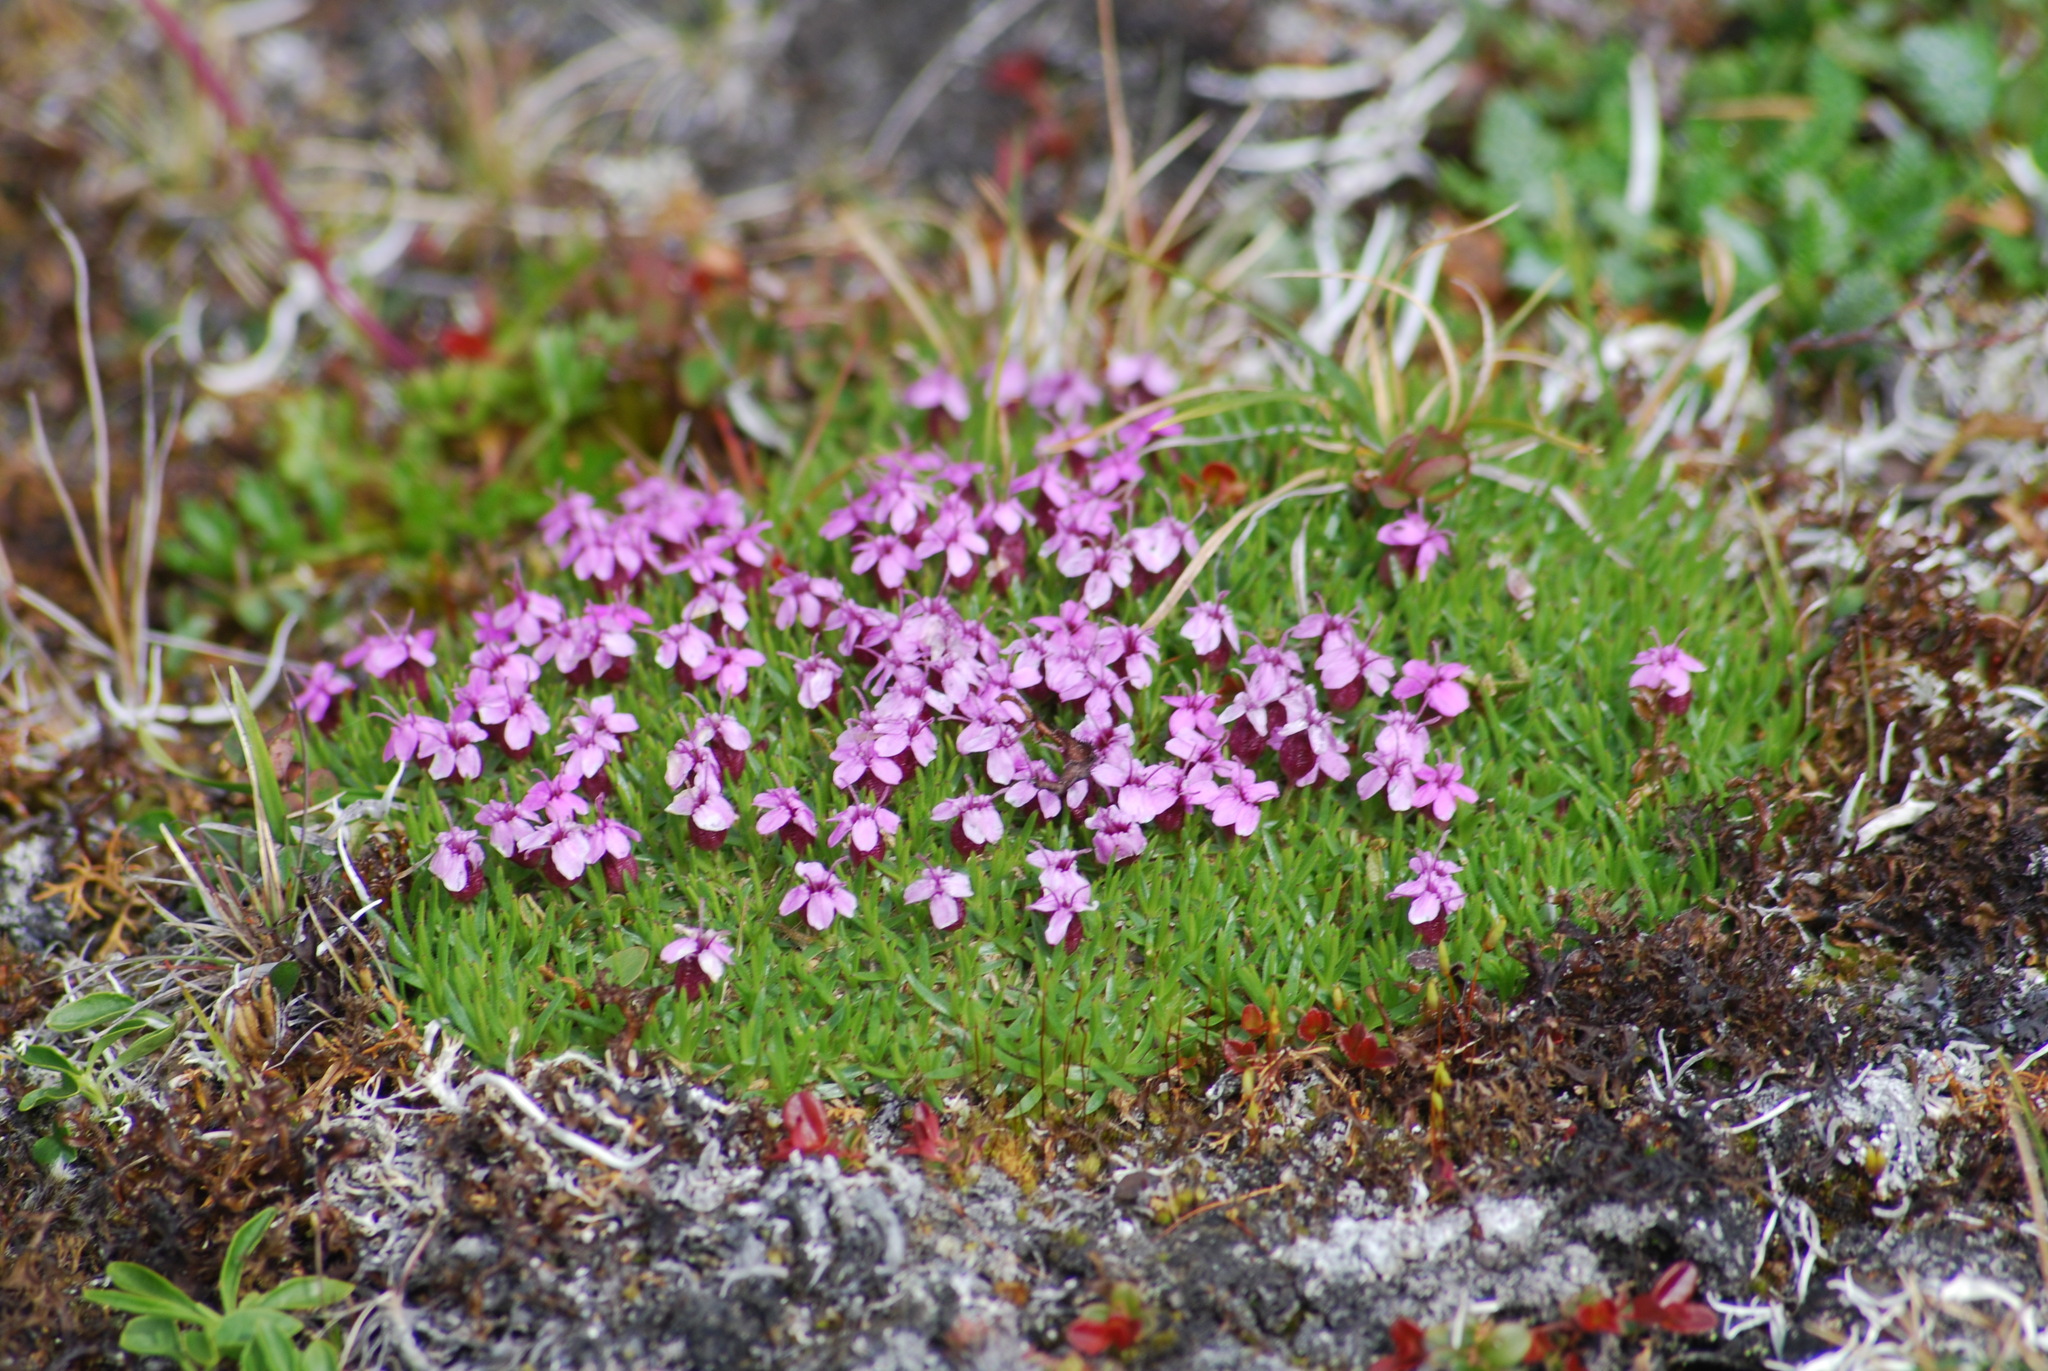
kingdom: Plantae
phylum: Tracheophyta
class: Magnoliopsida
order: Caryophyllales
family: Caryophyllaceae
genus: Silene
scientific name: Silene acaulis
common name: Moss campion
